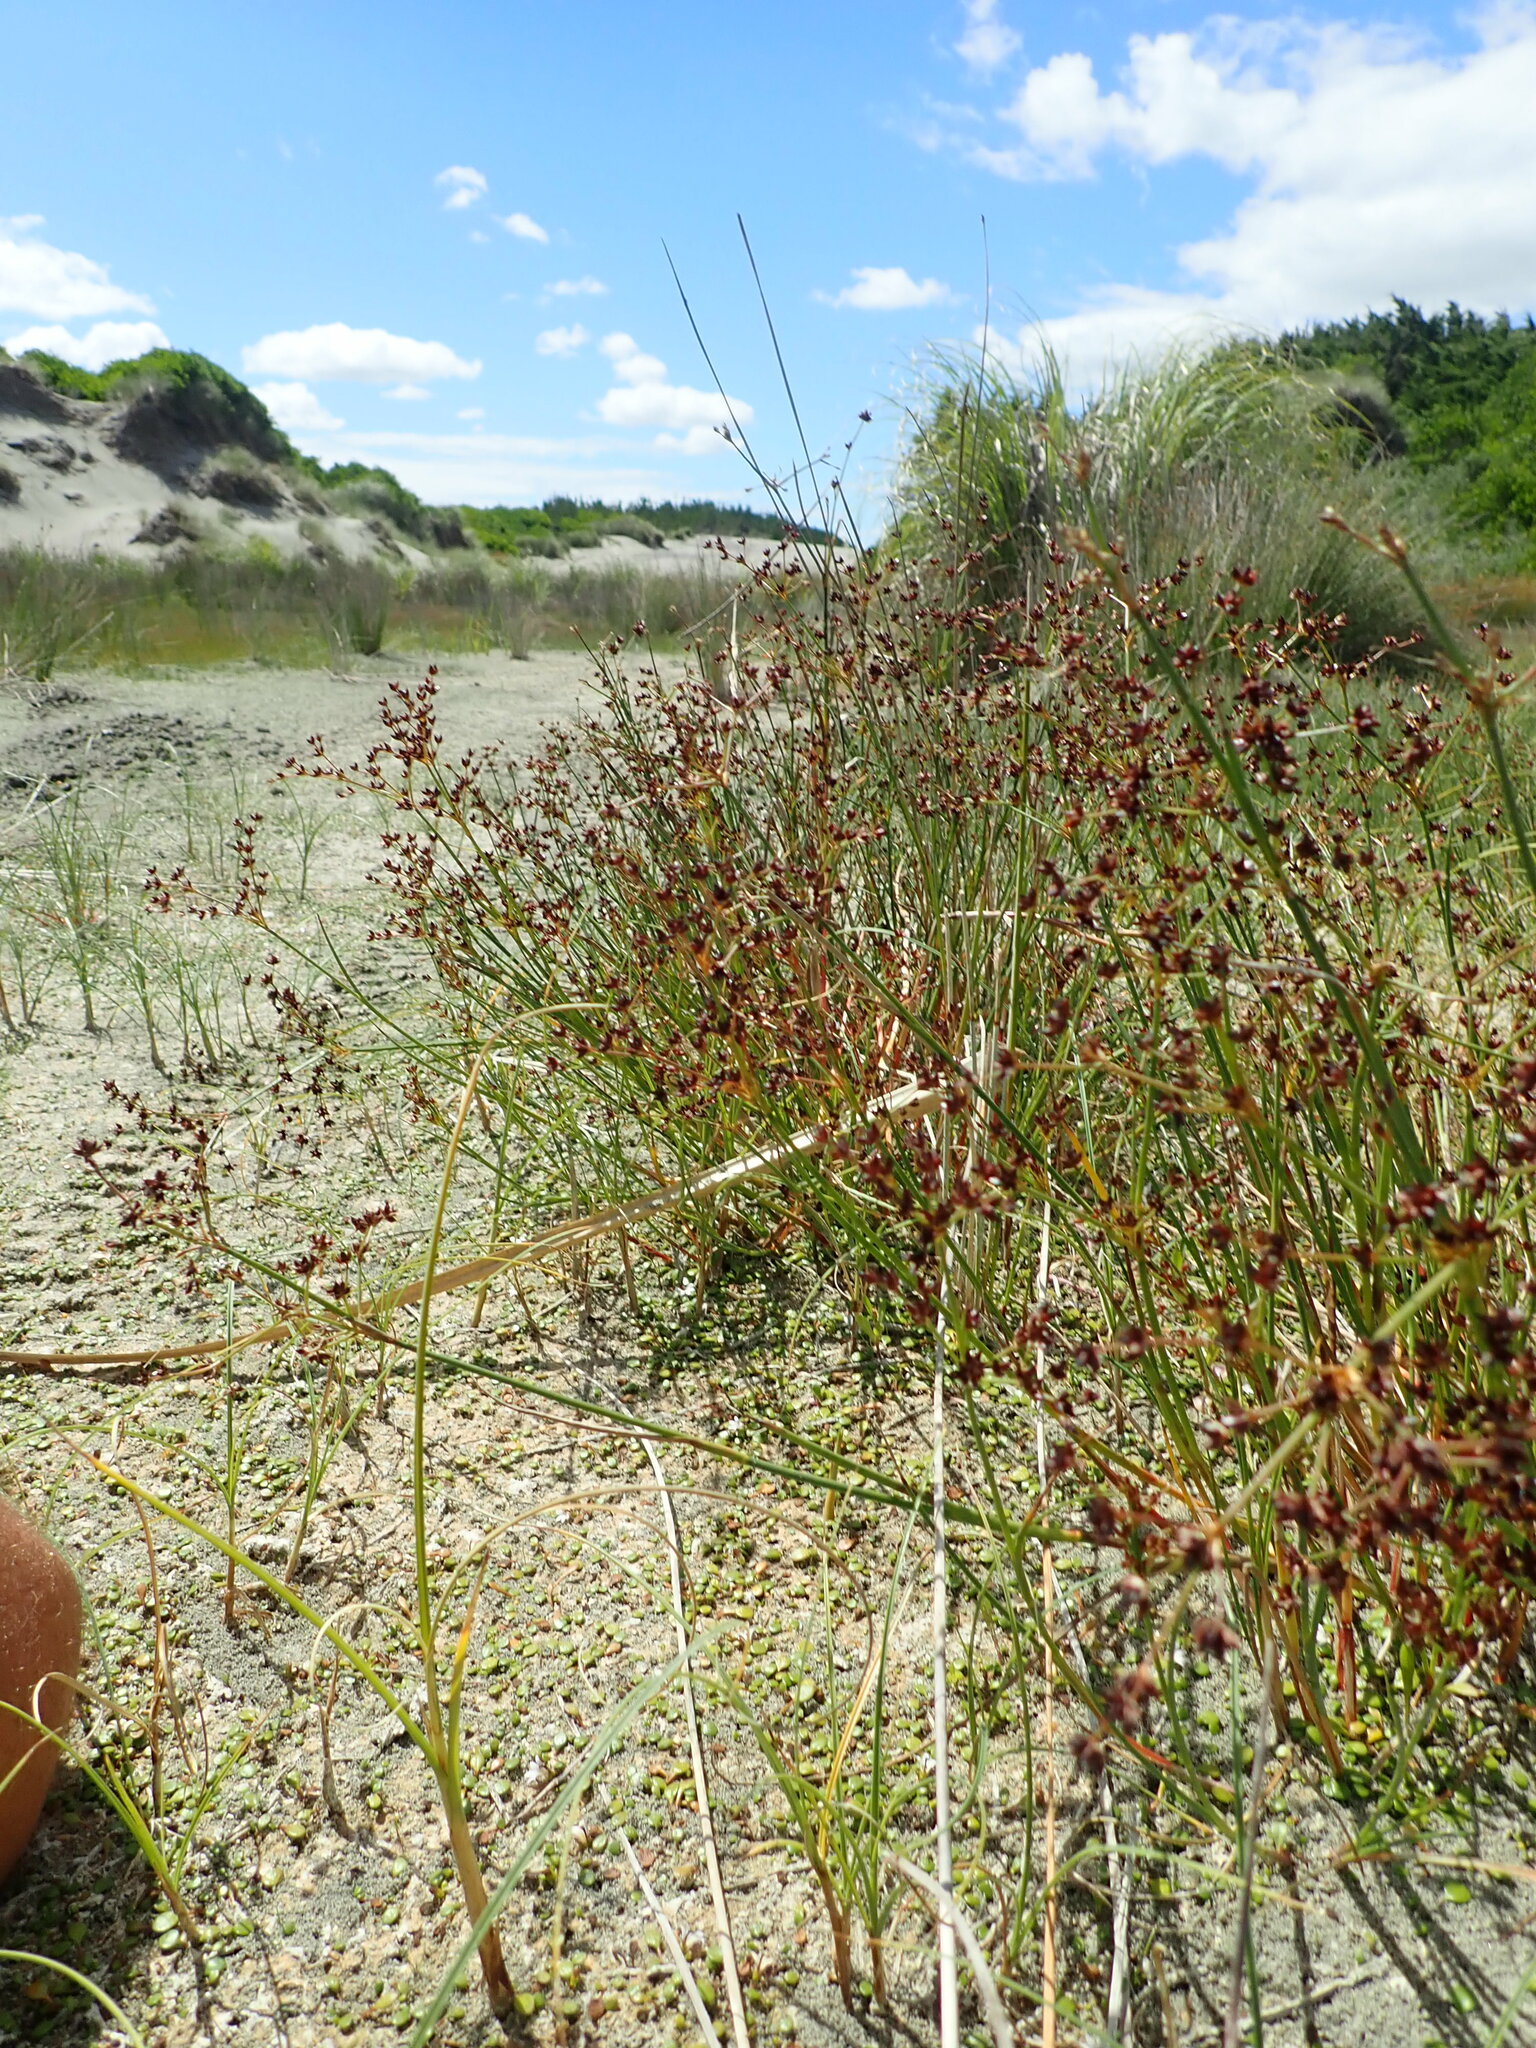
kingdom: Plantae
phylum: Tracheophyta
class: Liliopsida
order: Poales
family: Juncaceae
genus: Juncus
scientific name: Juncus articulatus
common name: Jointed rush
